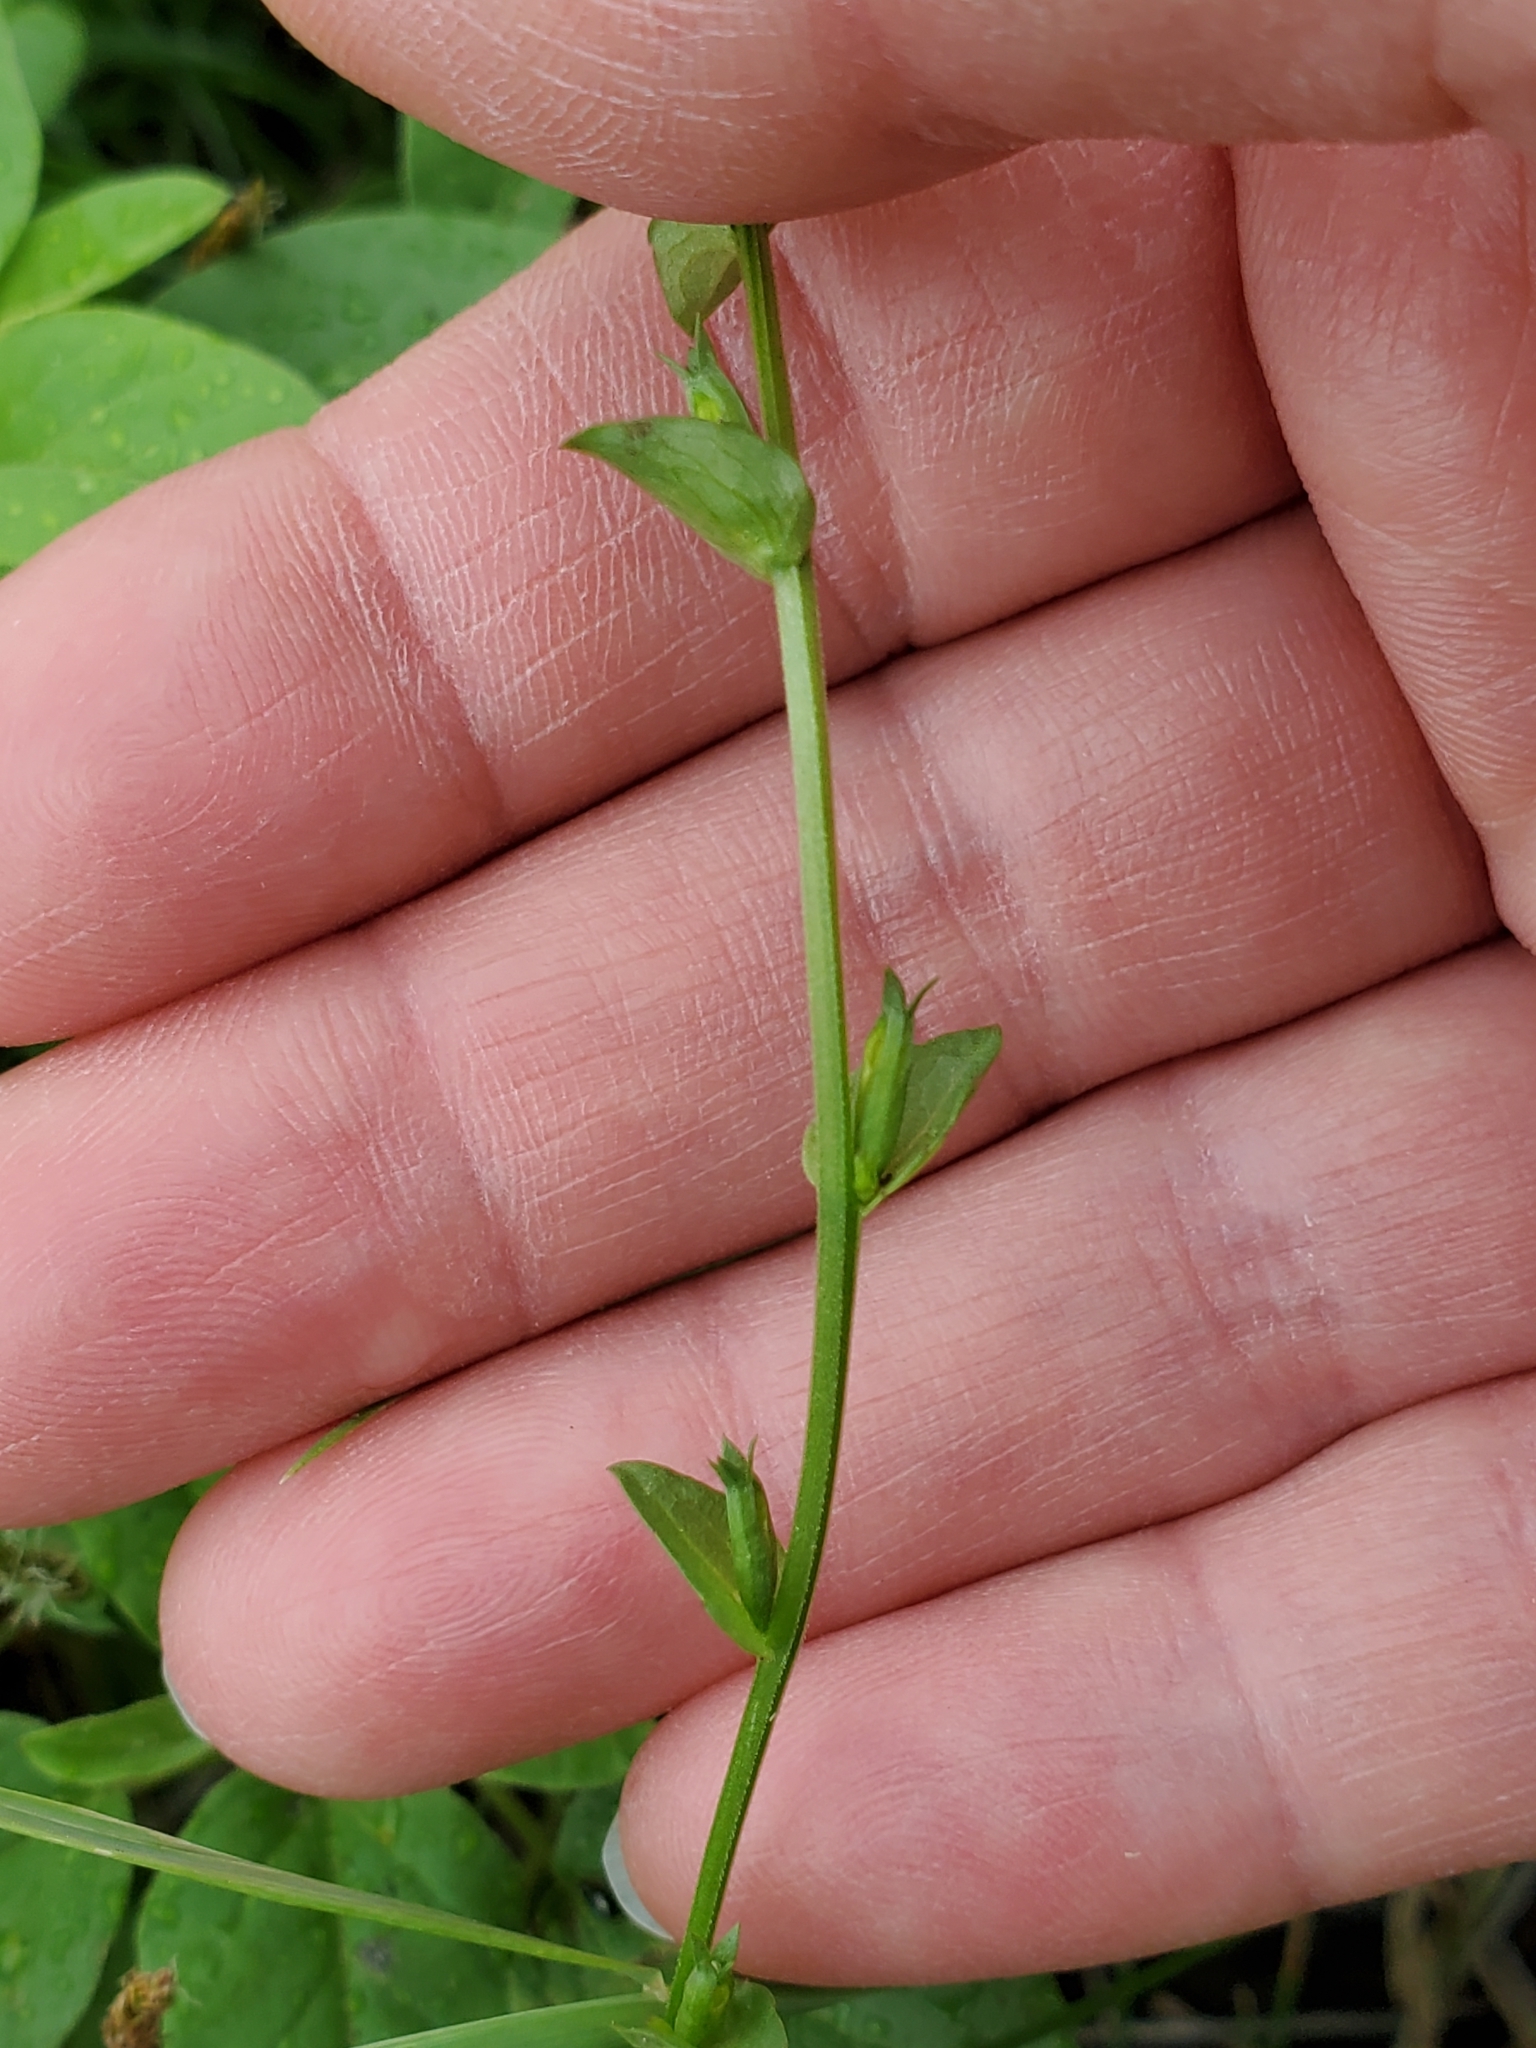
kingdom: Plantae
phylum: Tracheophyta
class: Magnoliopsida
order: Asterales
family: Campanulaceae
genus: Triodanis
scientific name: Triodanis biflora
